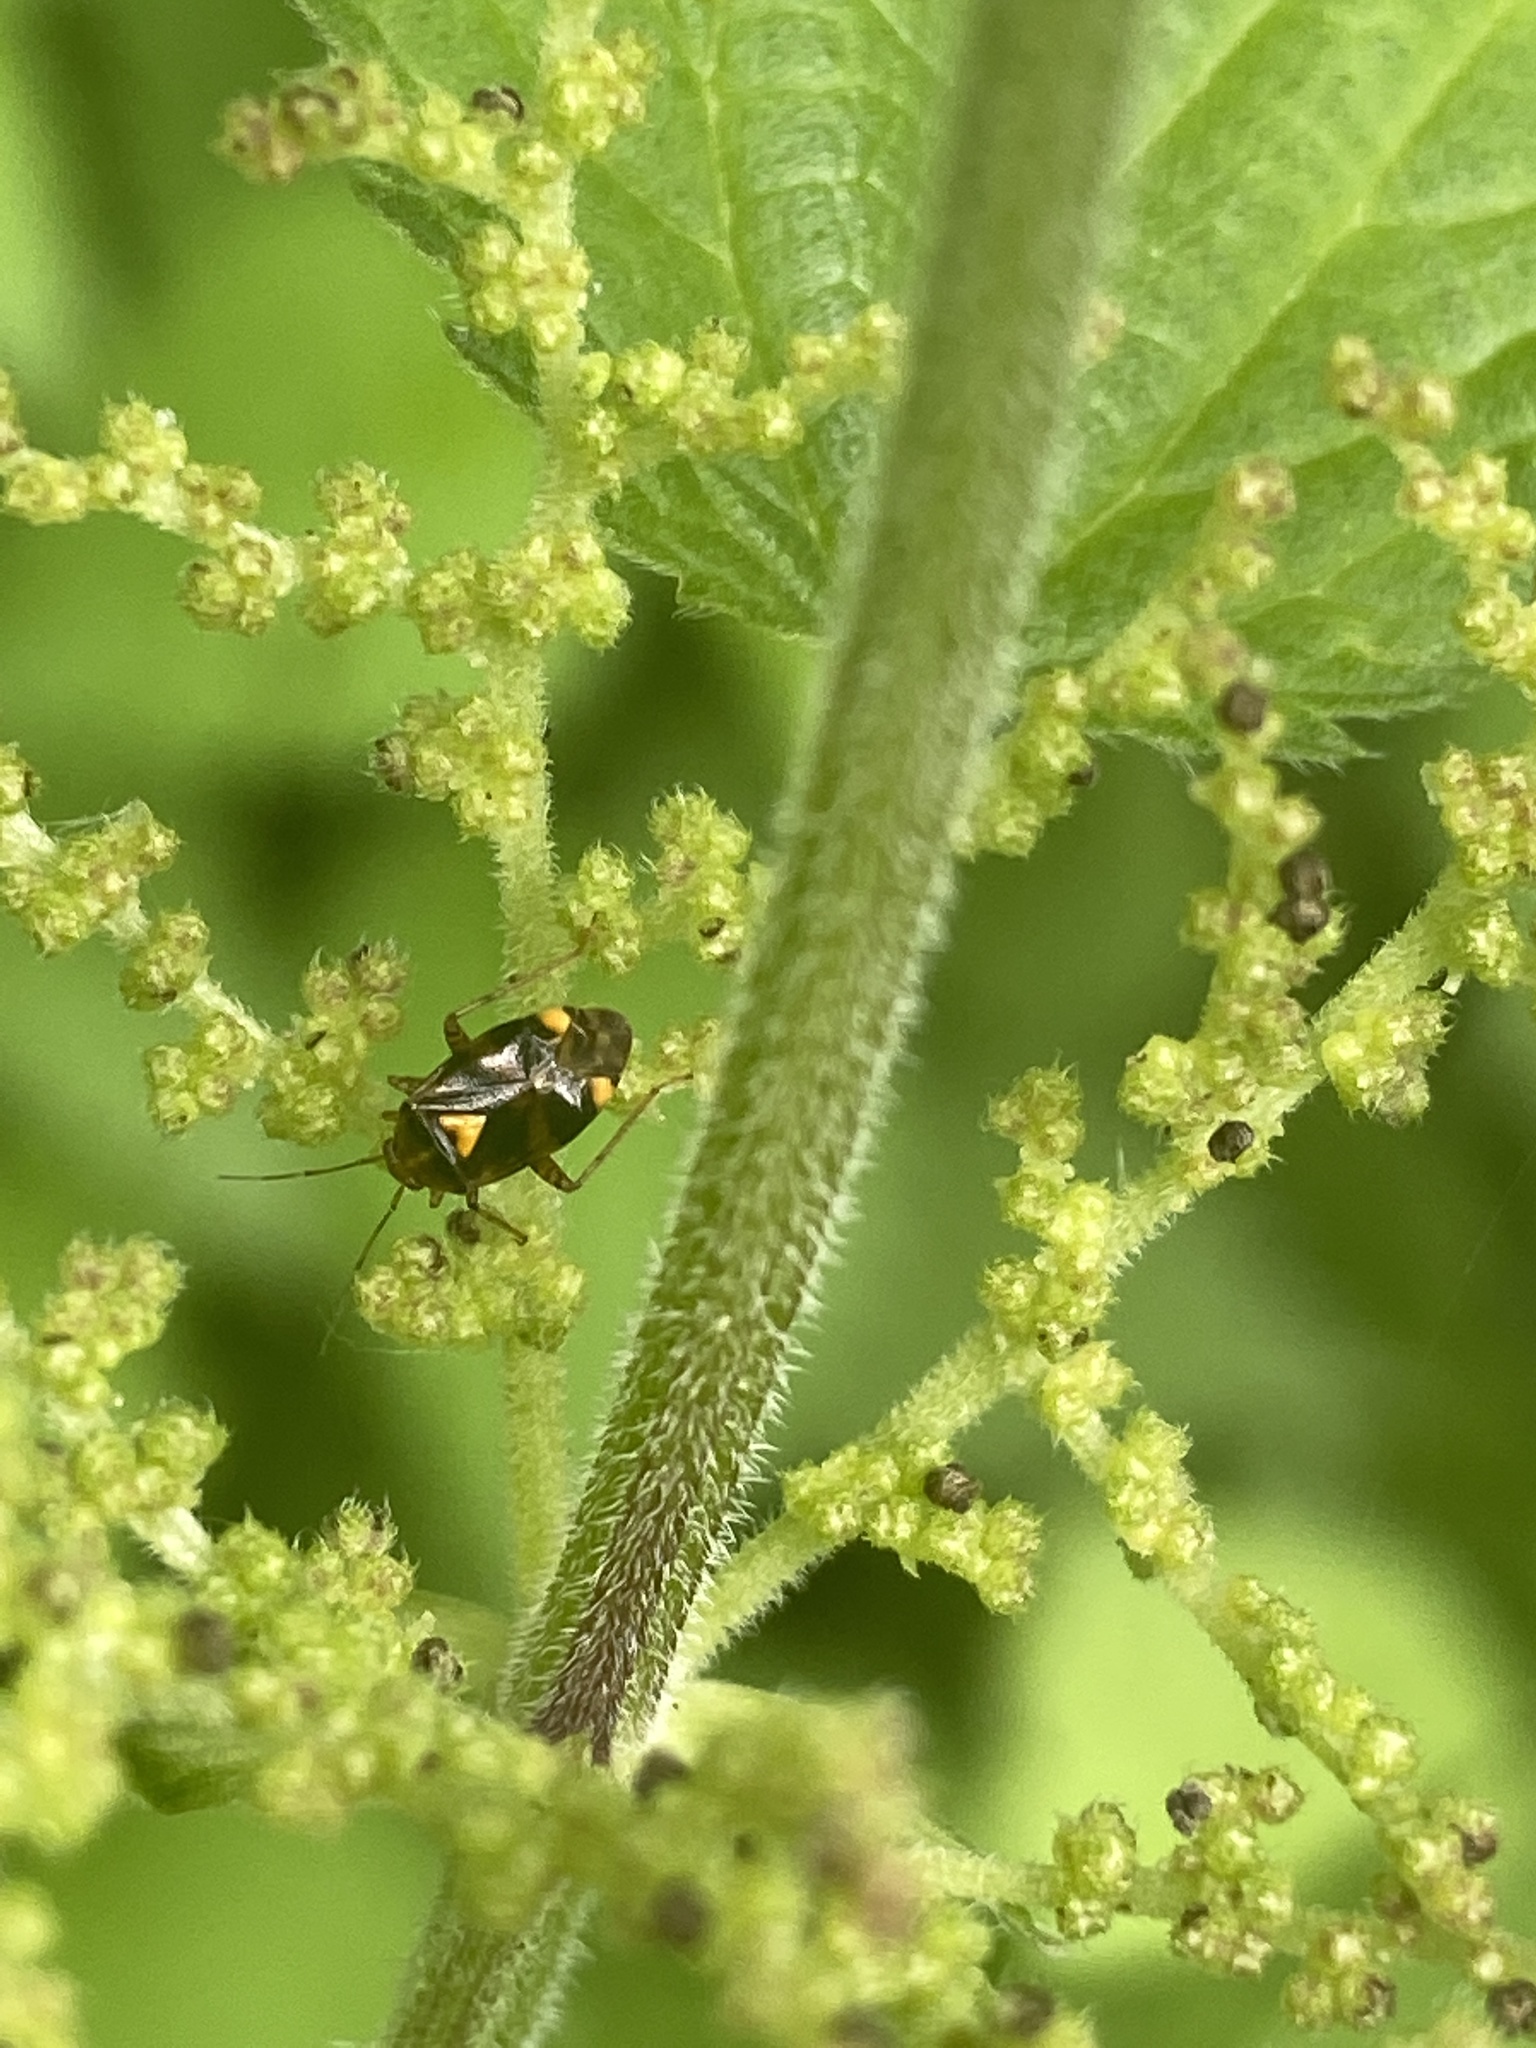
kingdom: Animalia
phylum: Arthropoda
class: Insecta
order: Hemiptera
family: Miridae
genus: Liocoris
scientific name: Liocoris tripustulatus
